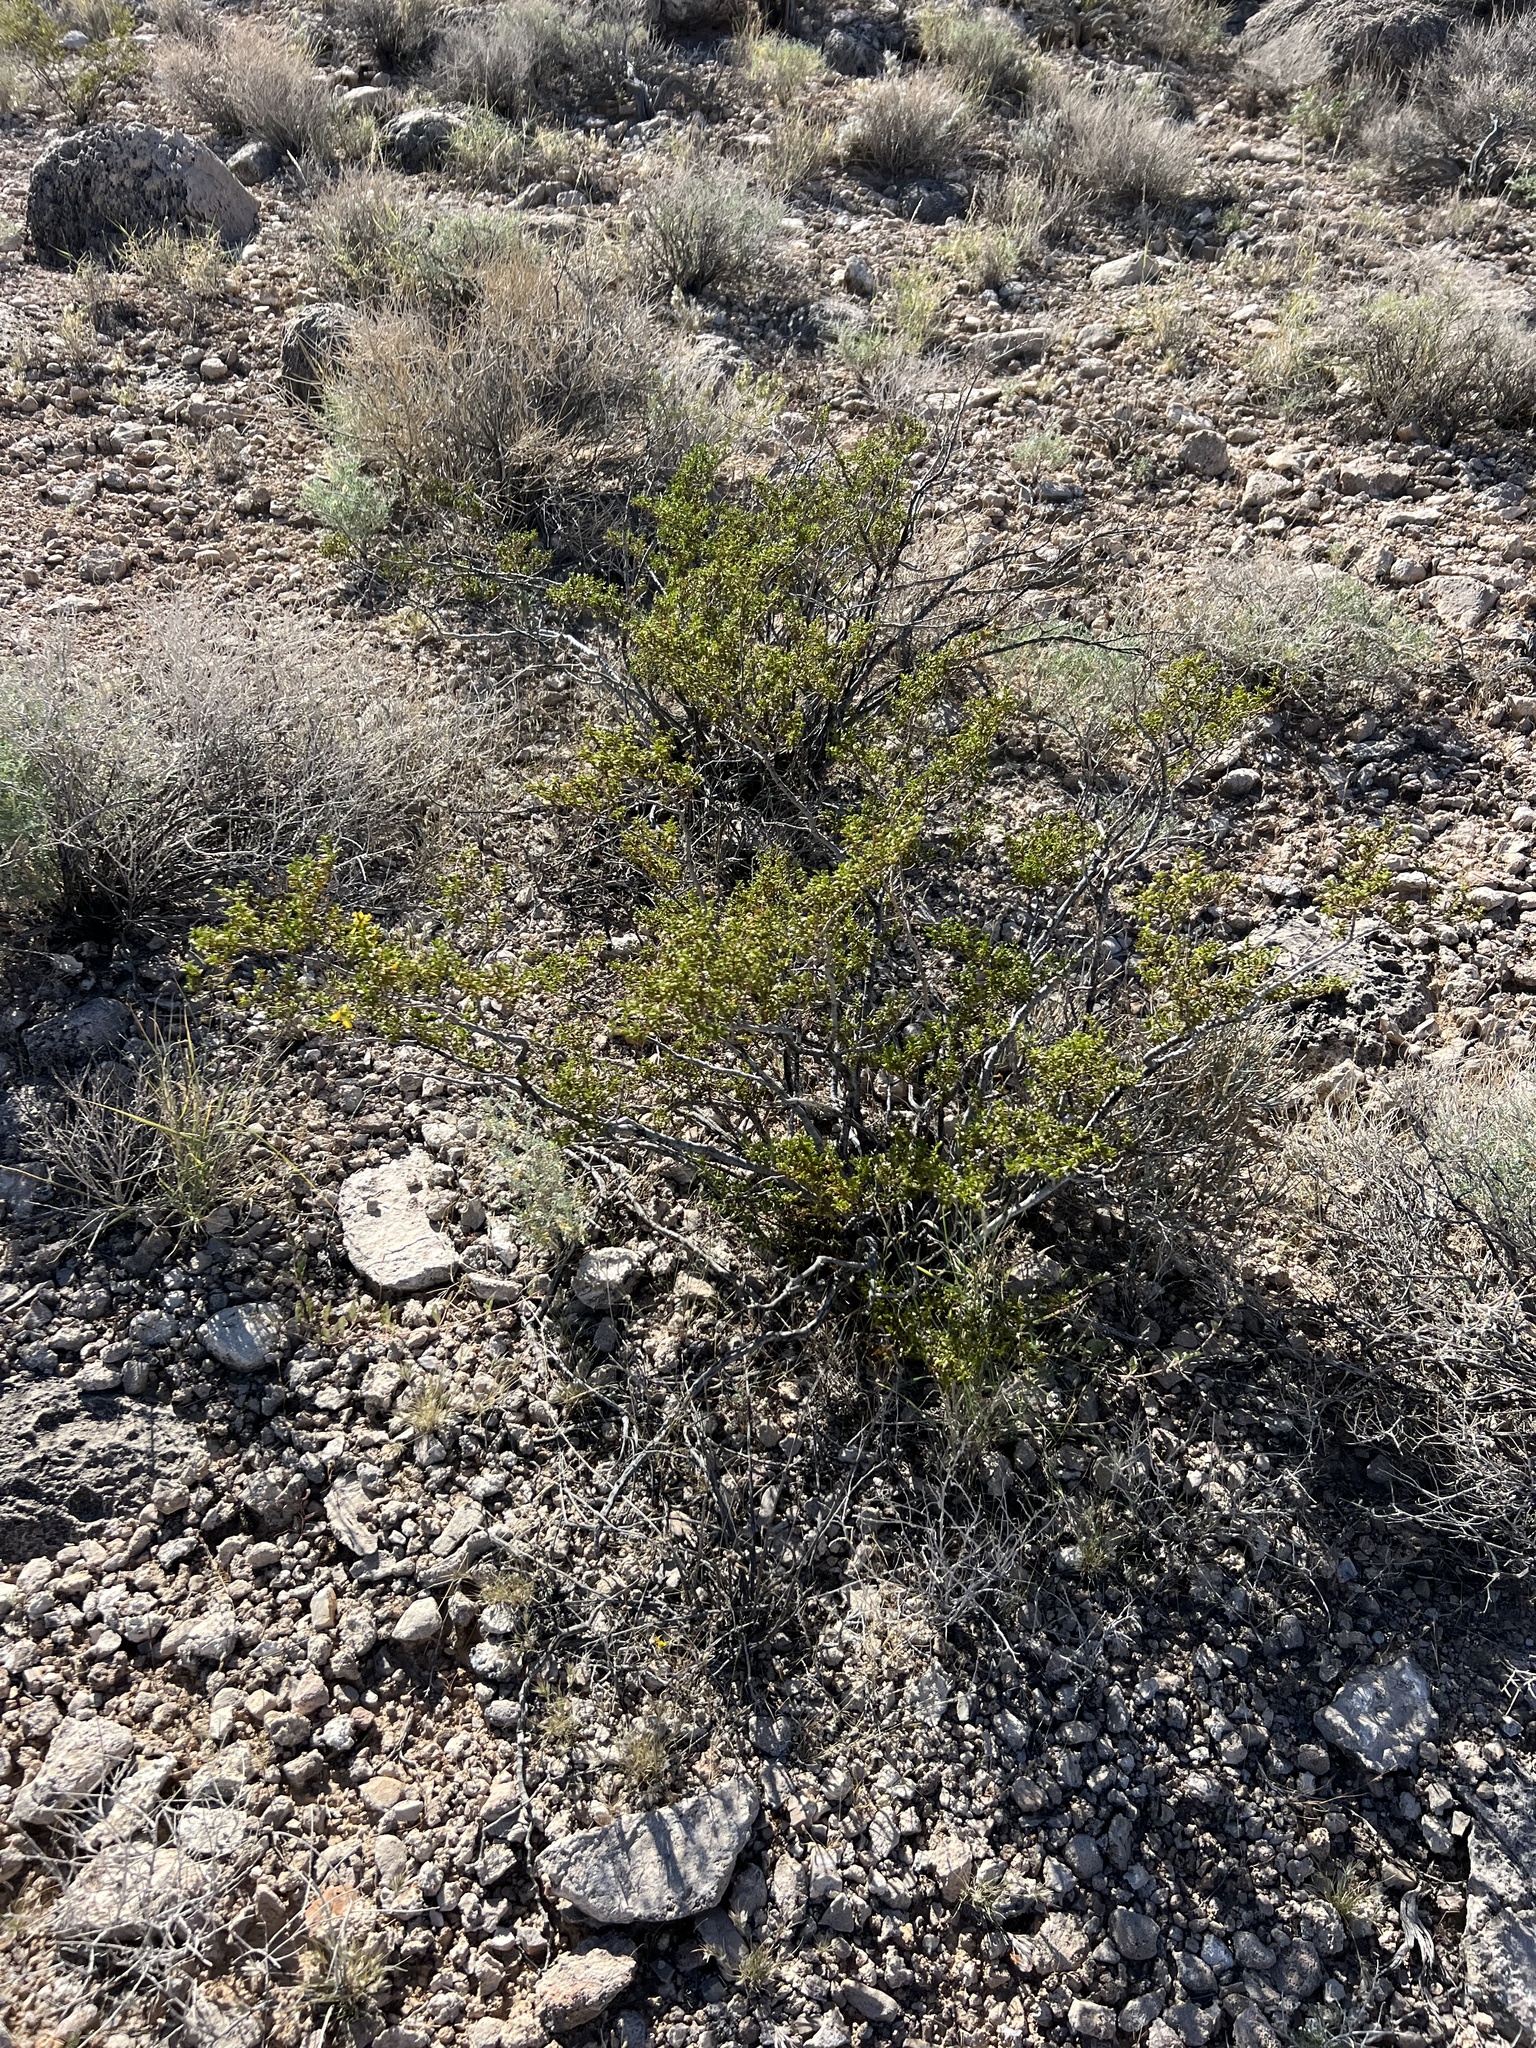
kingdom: Plantae
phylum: Tracheophyta
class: Magnoliopsida
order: Zygophyllales
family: Zygophyllaceae
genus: Larrea
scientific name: Larrea tridentata
